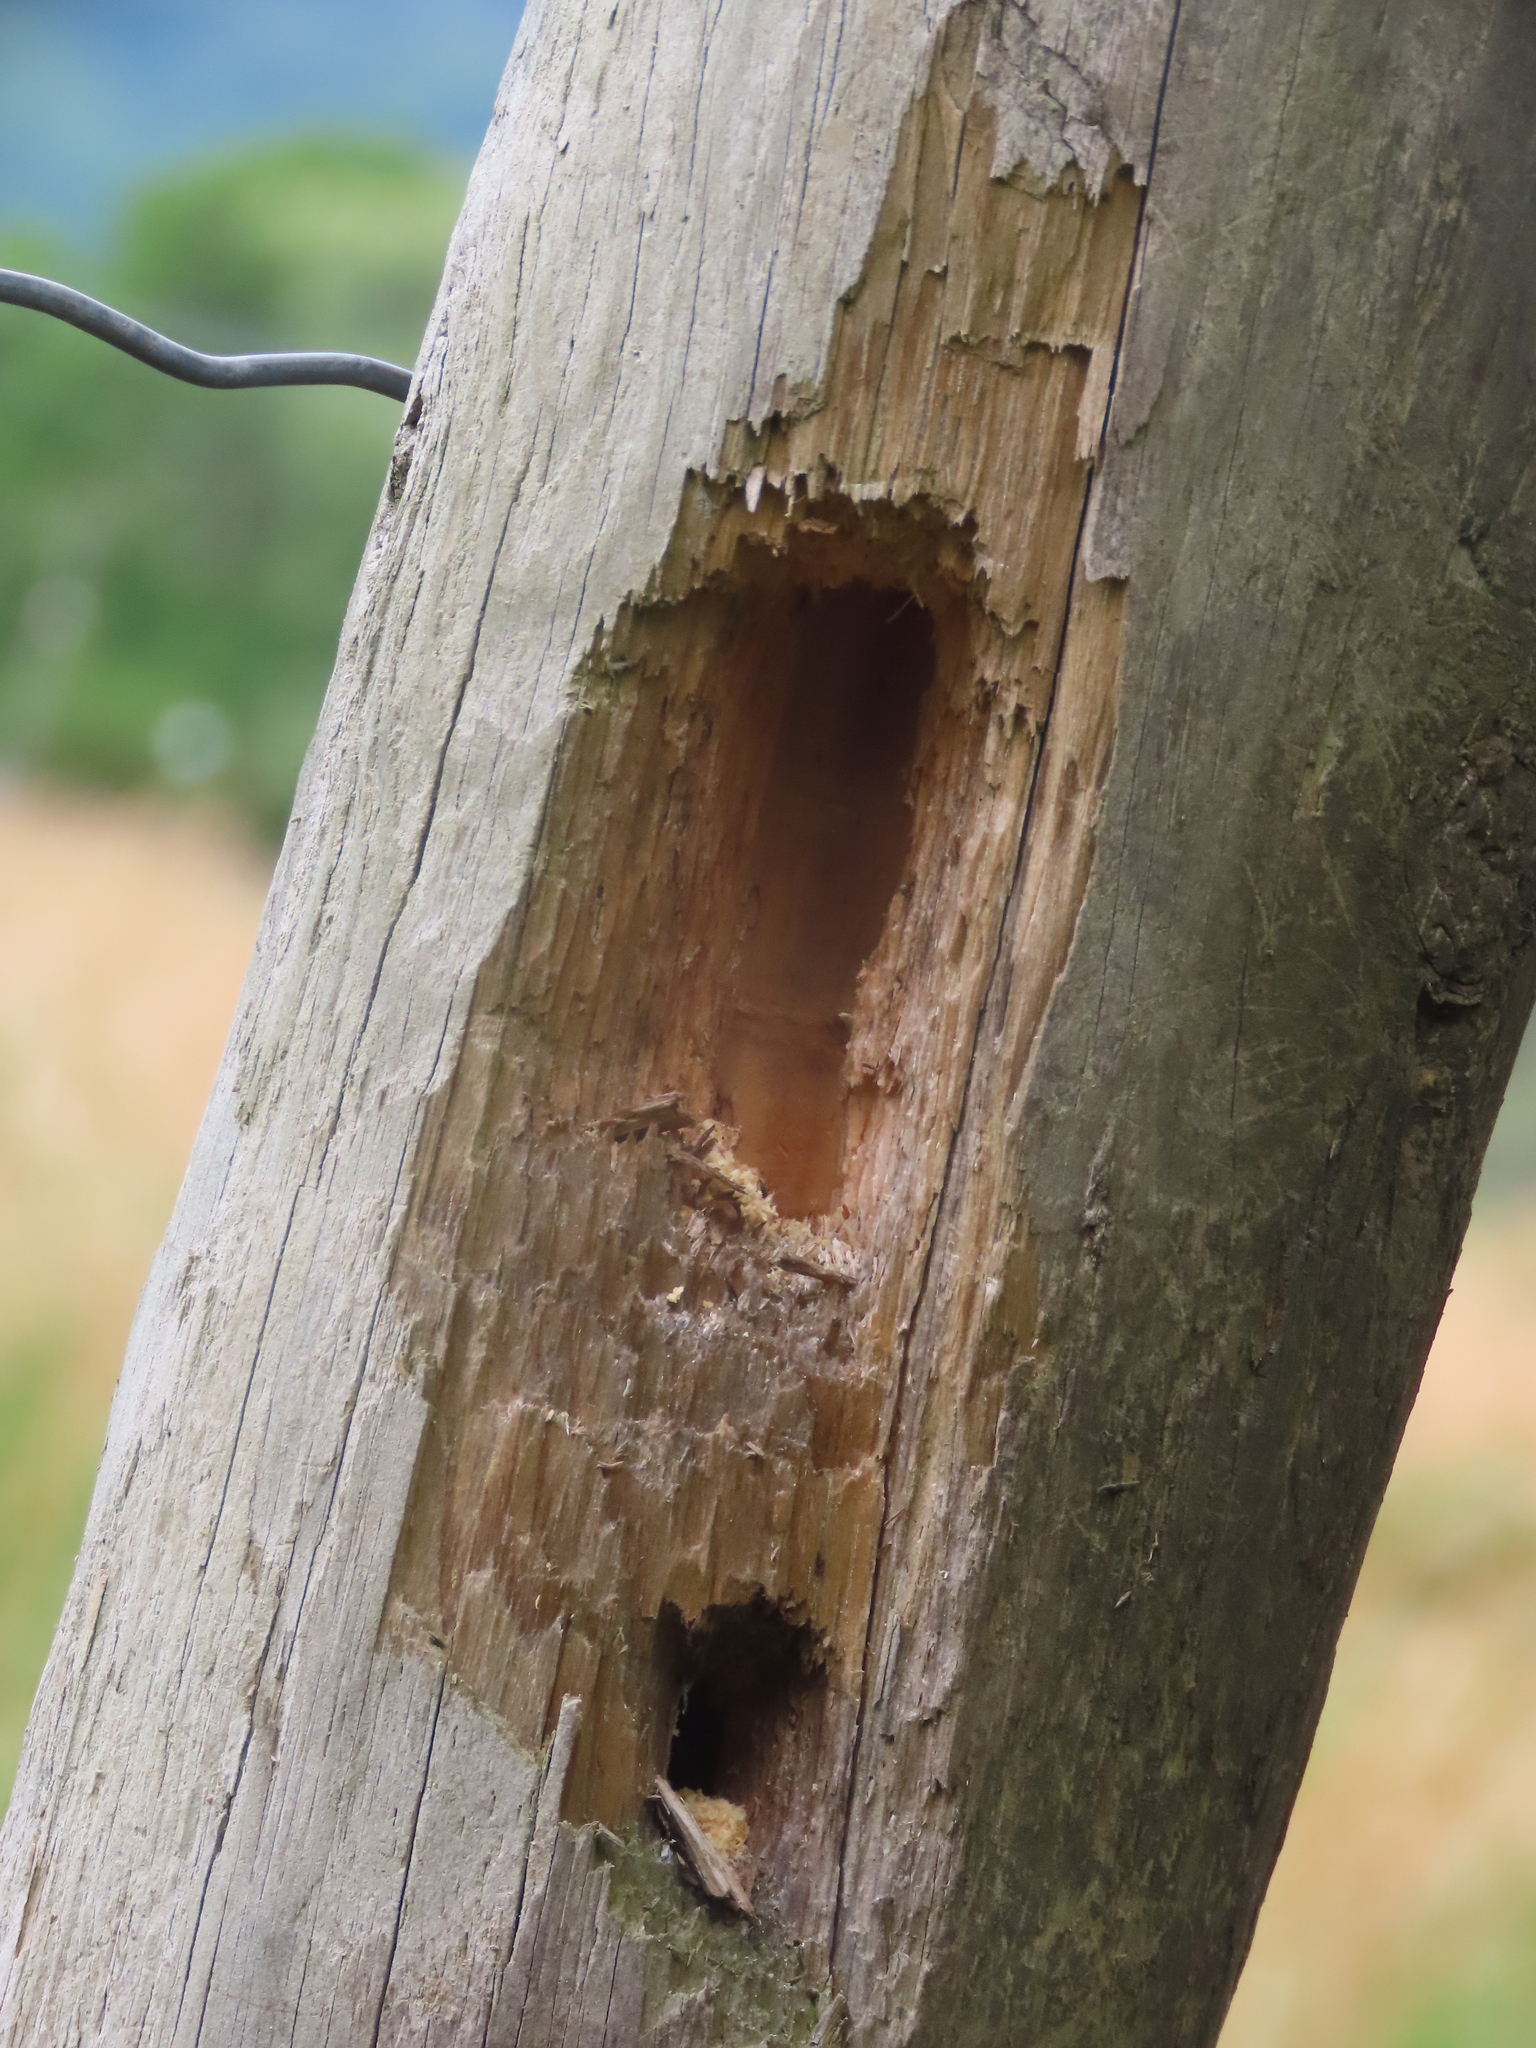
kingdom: Animalia
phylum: Chordata
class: Aves
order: Piciformes
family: Picidae
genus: Dryocopus
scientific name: Dryocopus pileatus
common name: Pileated woodpecker
